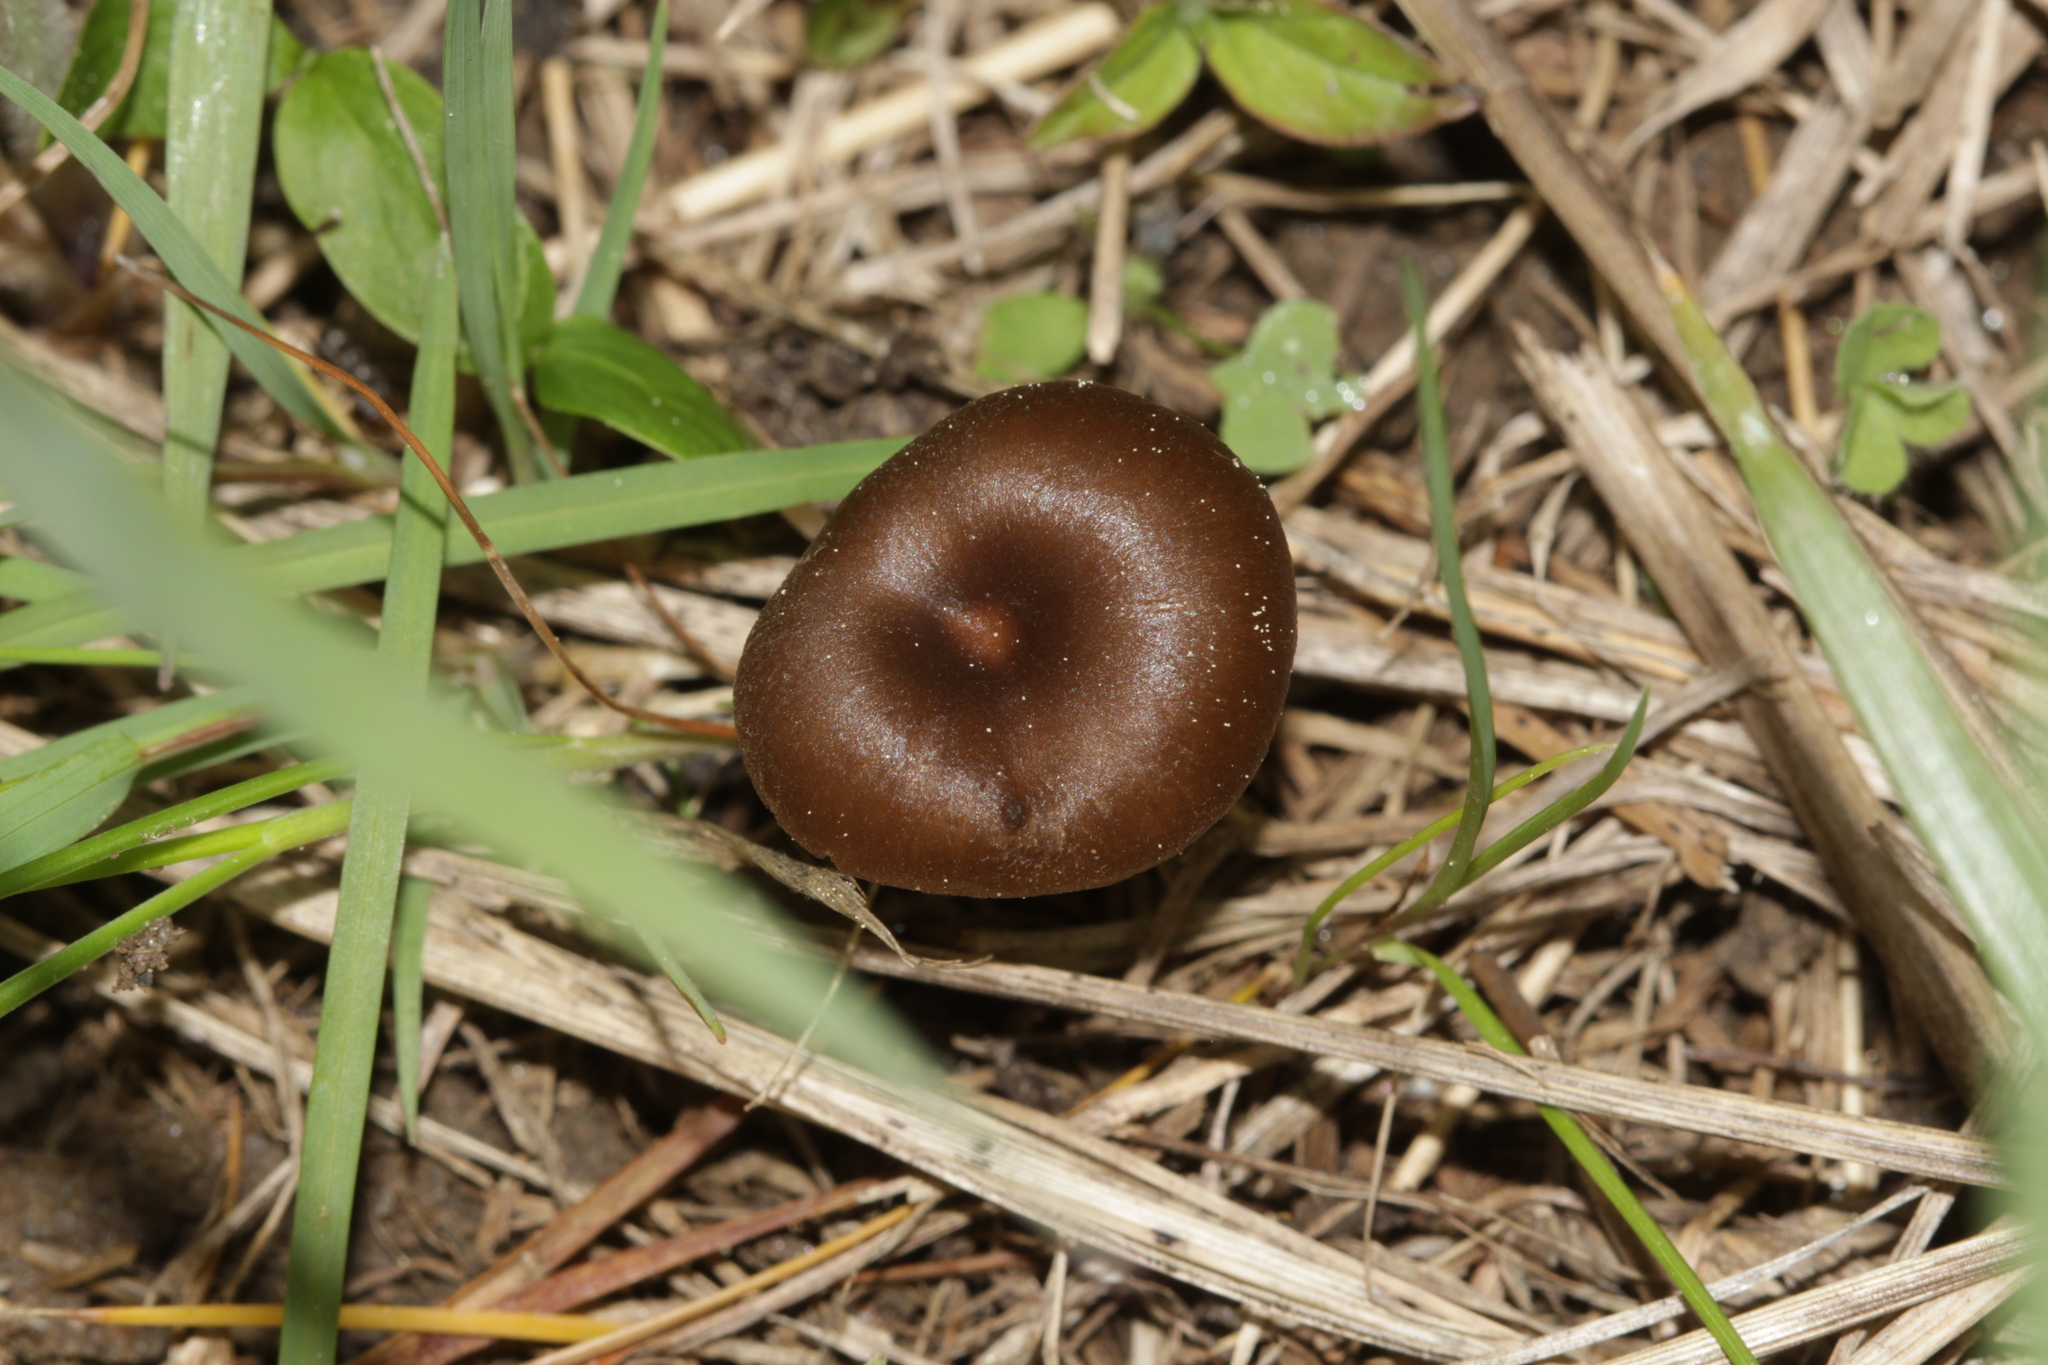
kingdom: Fungi
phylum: Basidiomycota
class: Agaricomycetes
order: Agaricales
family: Entolomataceae
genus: Entoloma
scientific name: Entoloma sericeoides
